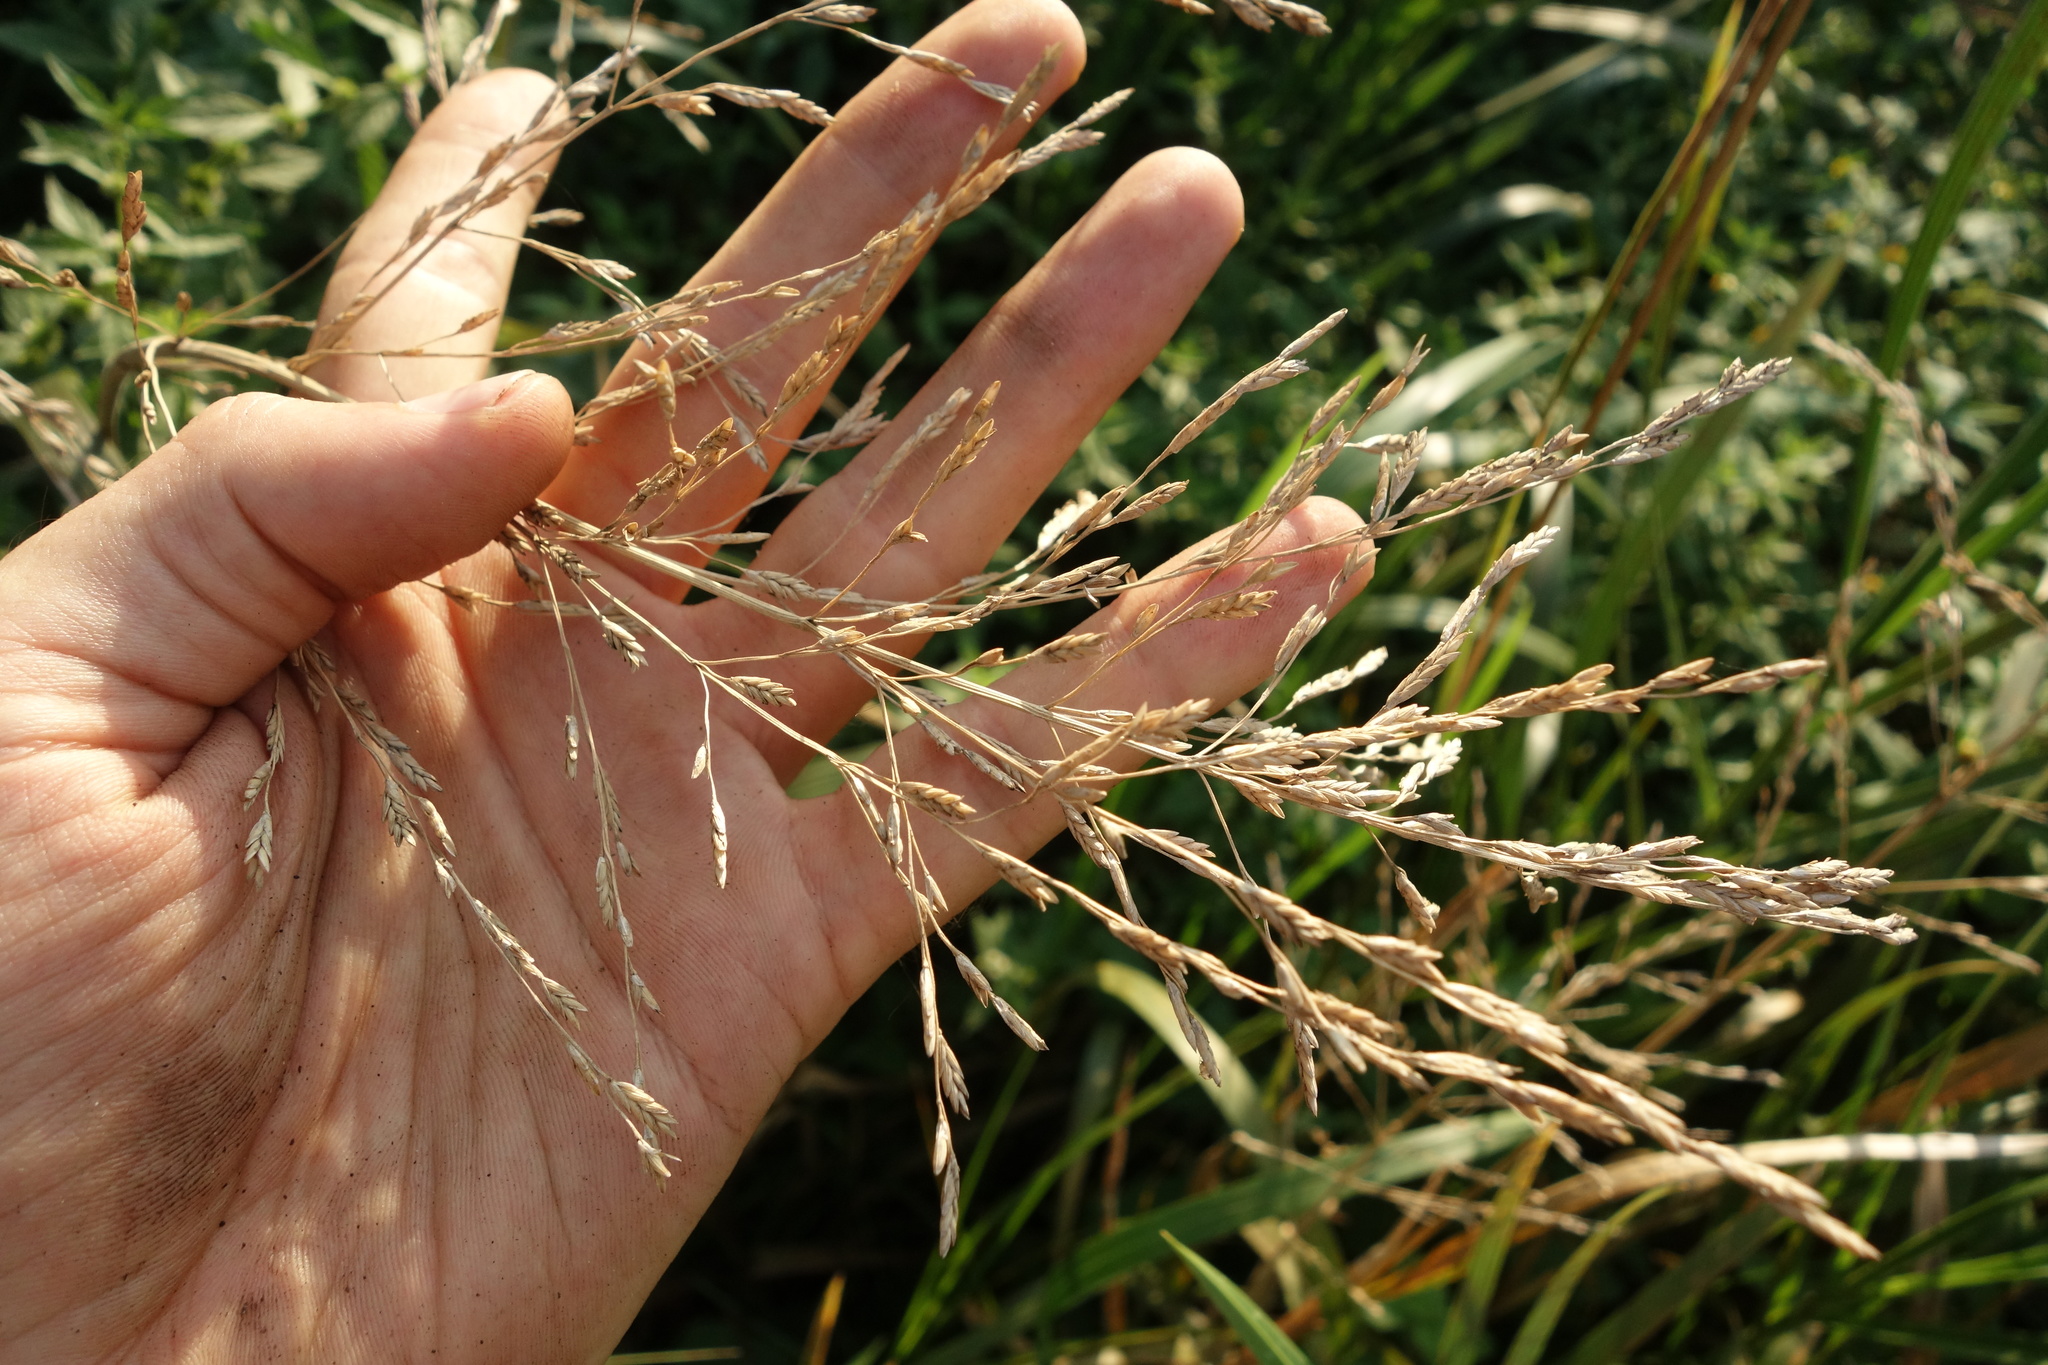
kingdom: Plantae
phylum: Tracheophyta
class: Liliopsida
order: Poales
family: Poaceae
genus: Glyceria
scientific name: Glyceria maxima
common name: Reed mannagrass
